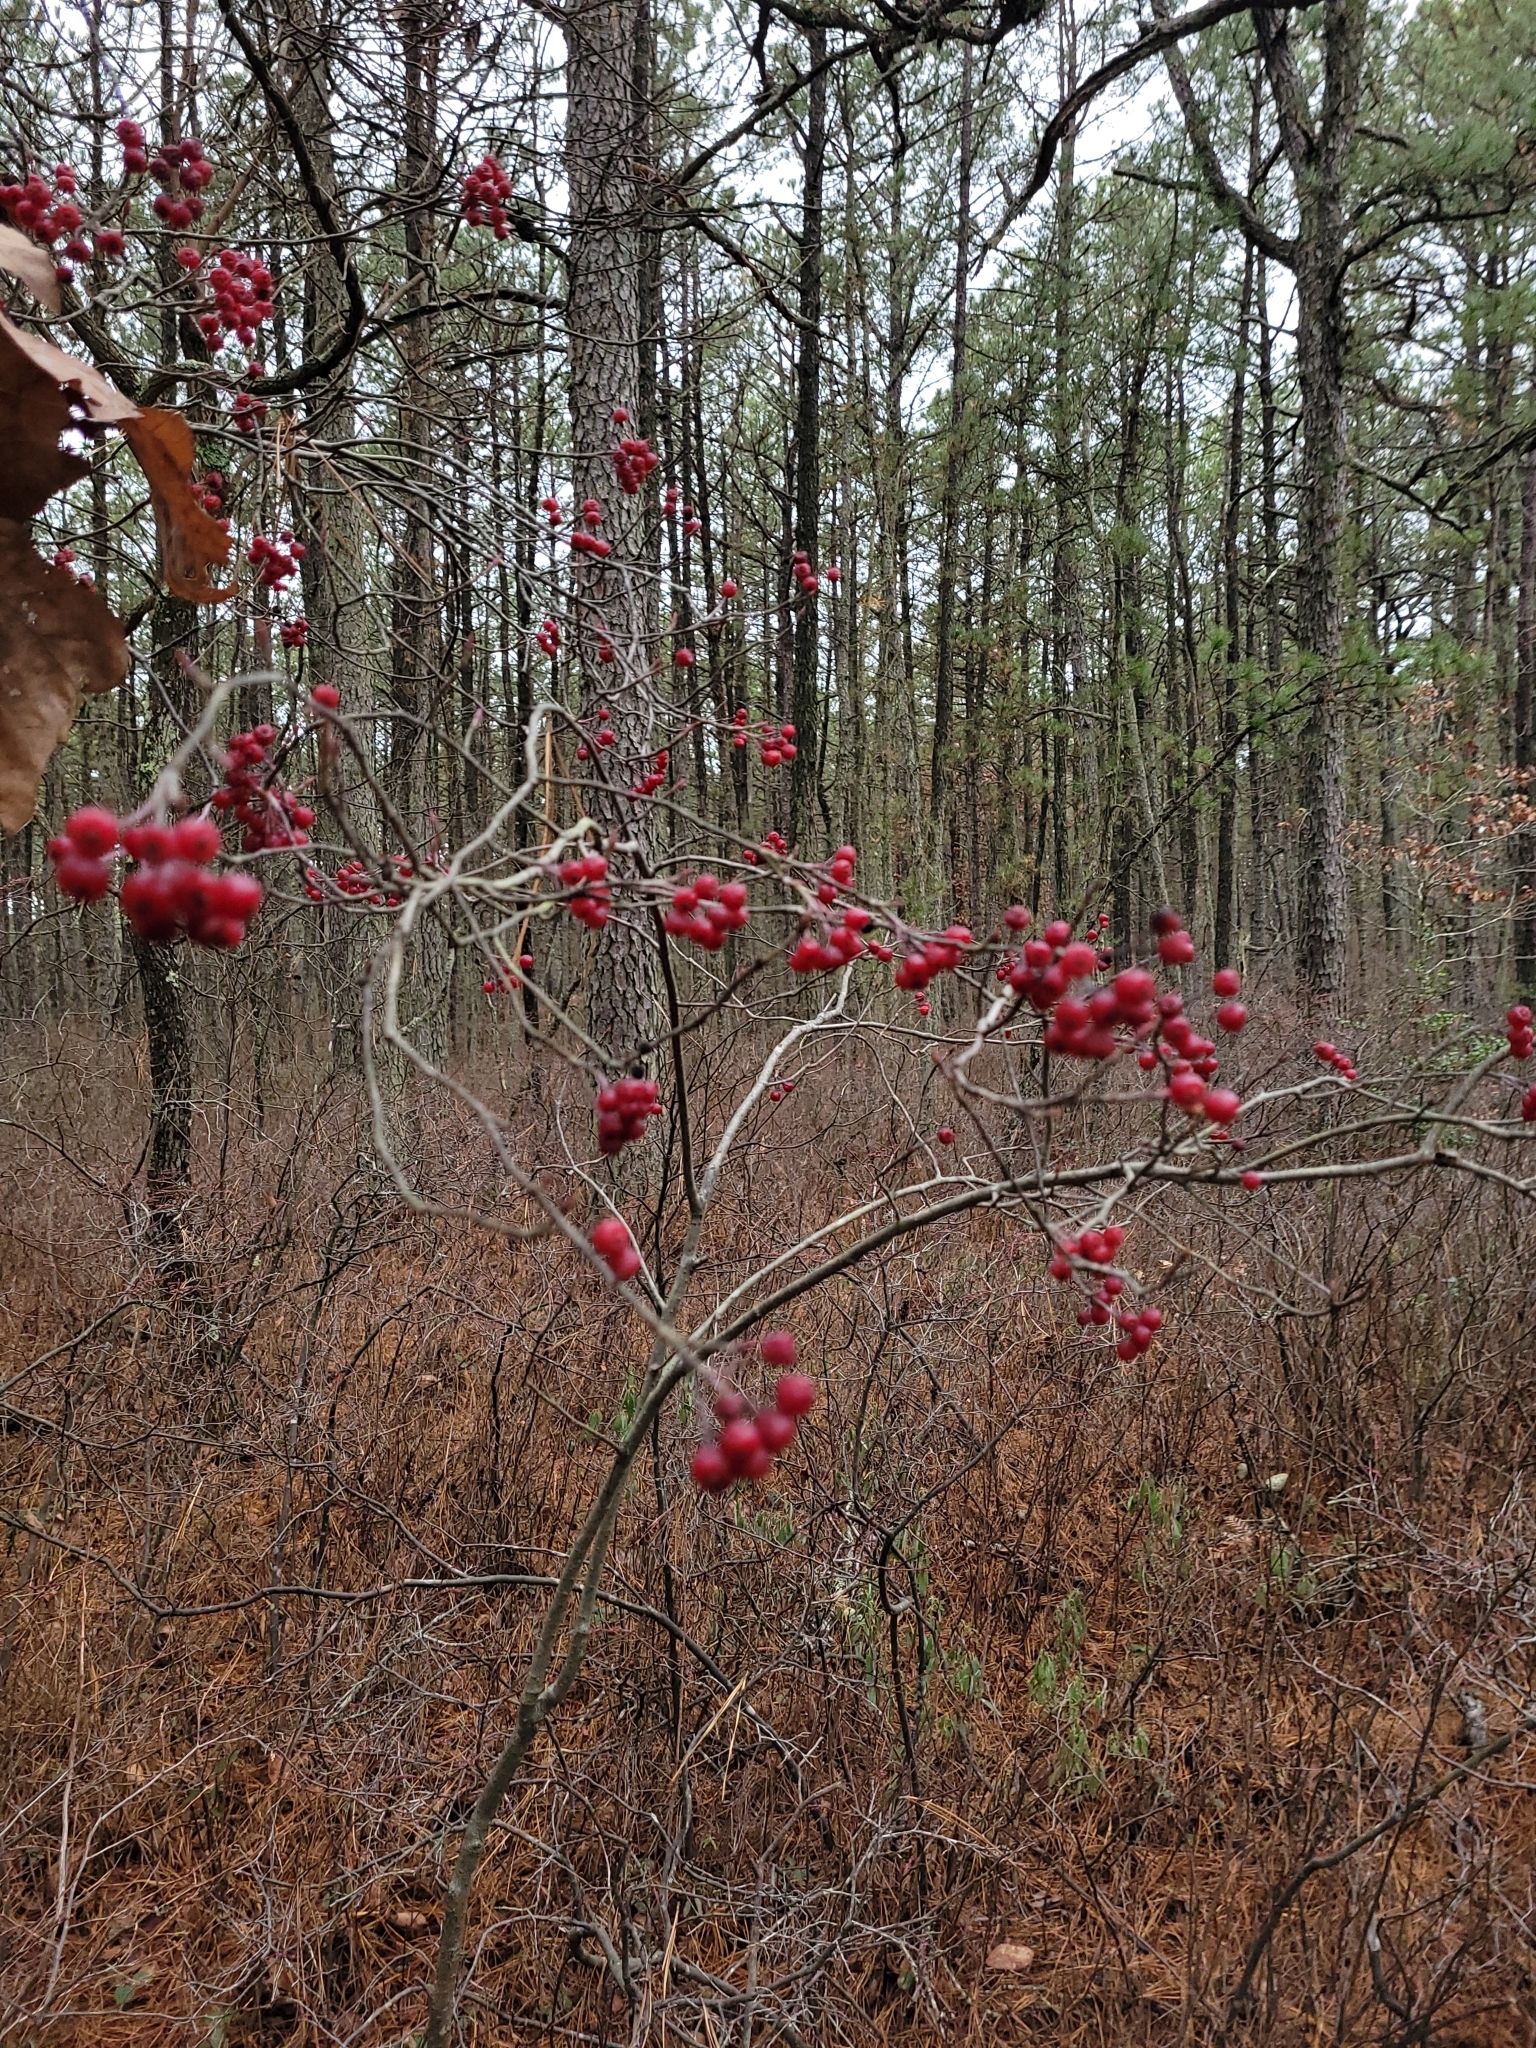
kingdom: Plantae
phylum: Tracheophyta
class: Magnoliopsida
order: Rosales
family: Rosaceae
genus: Aronia
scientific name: Aronia arbutifolia
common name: Red chokeberry
